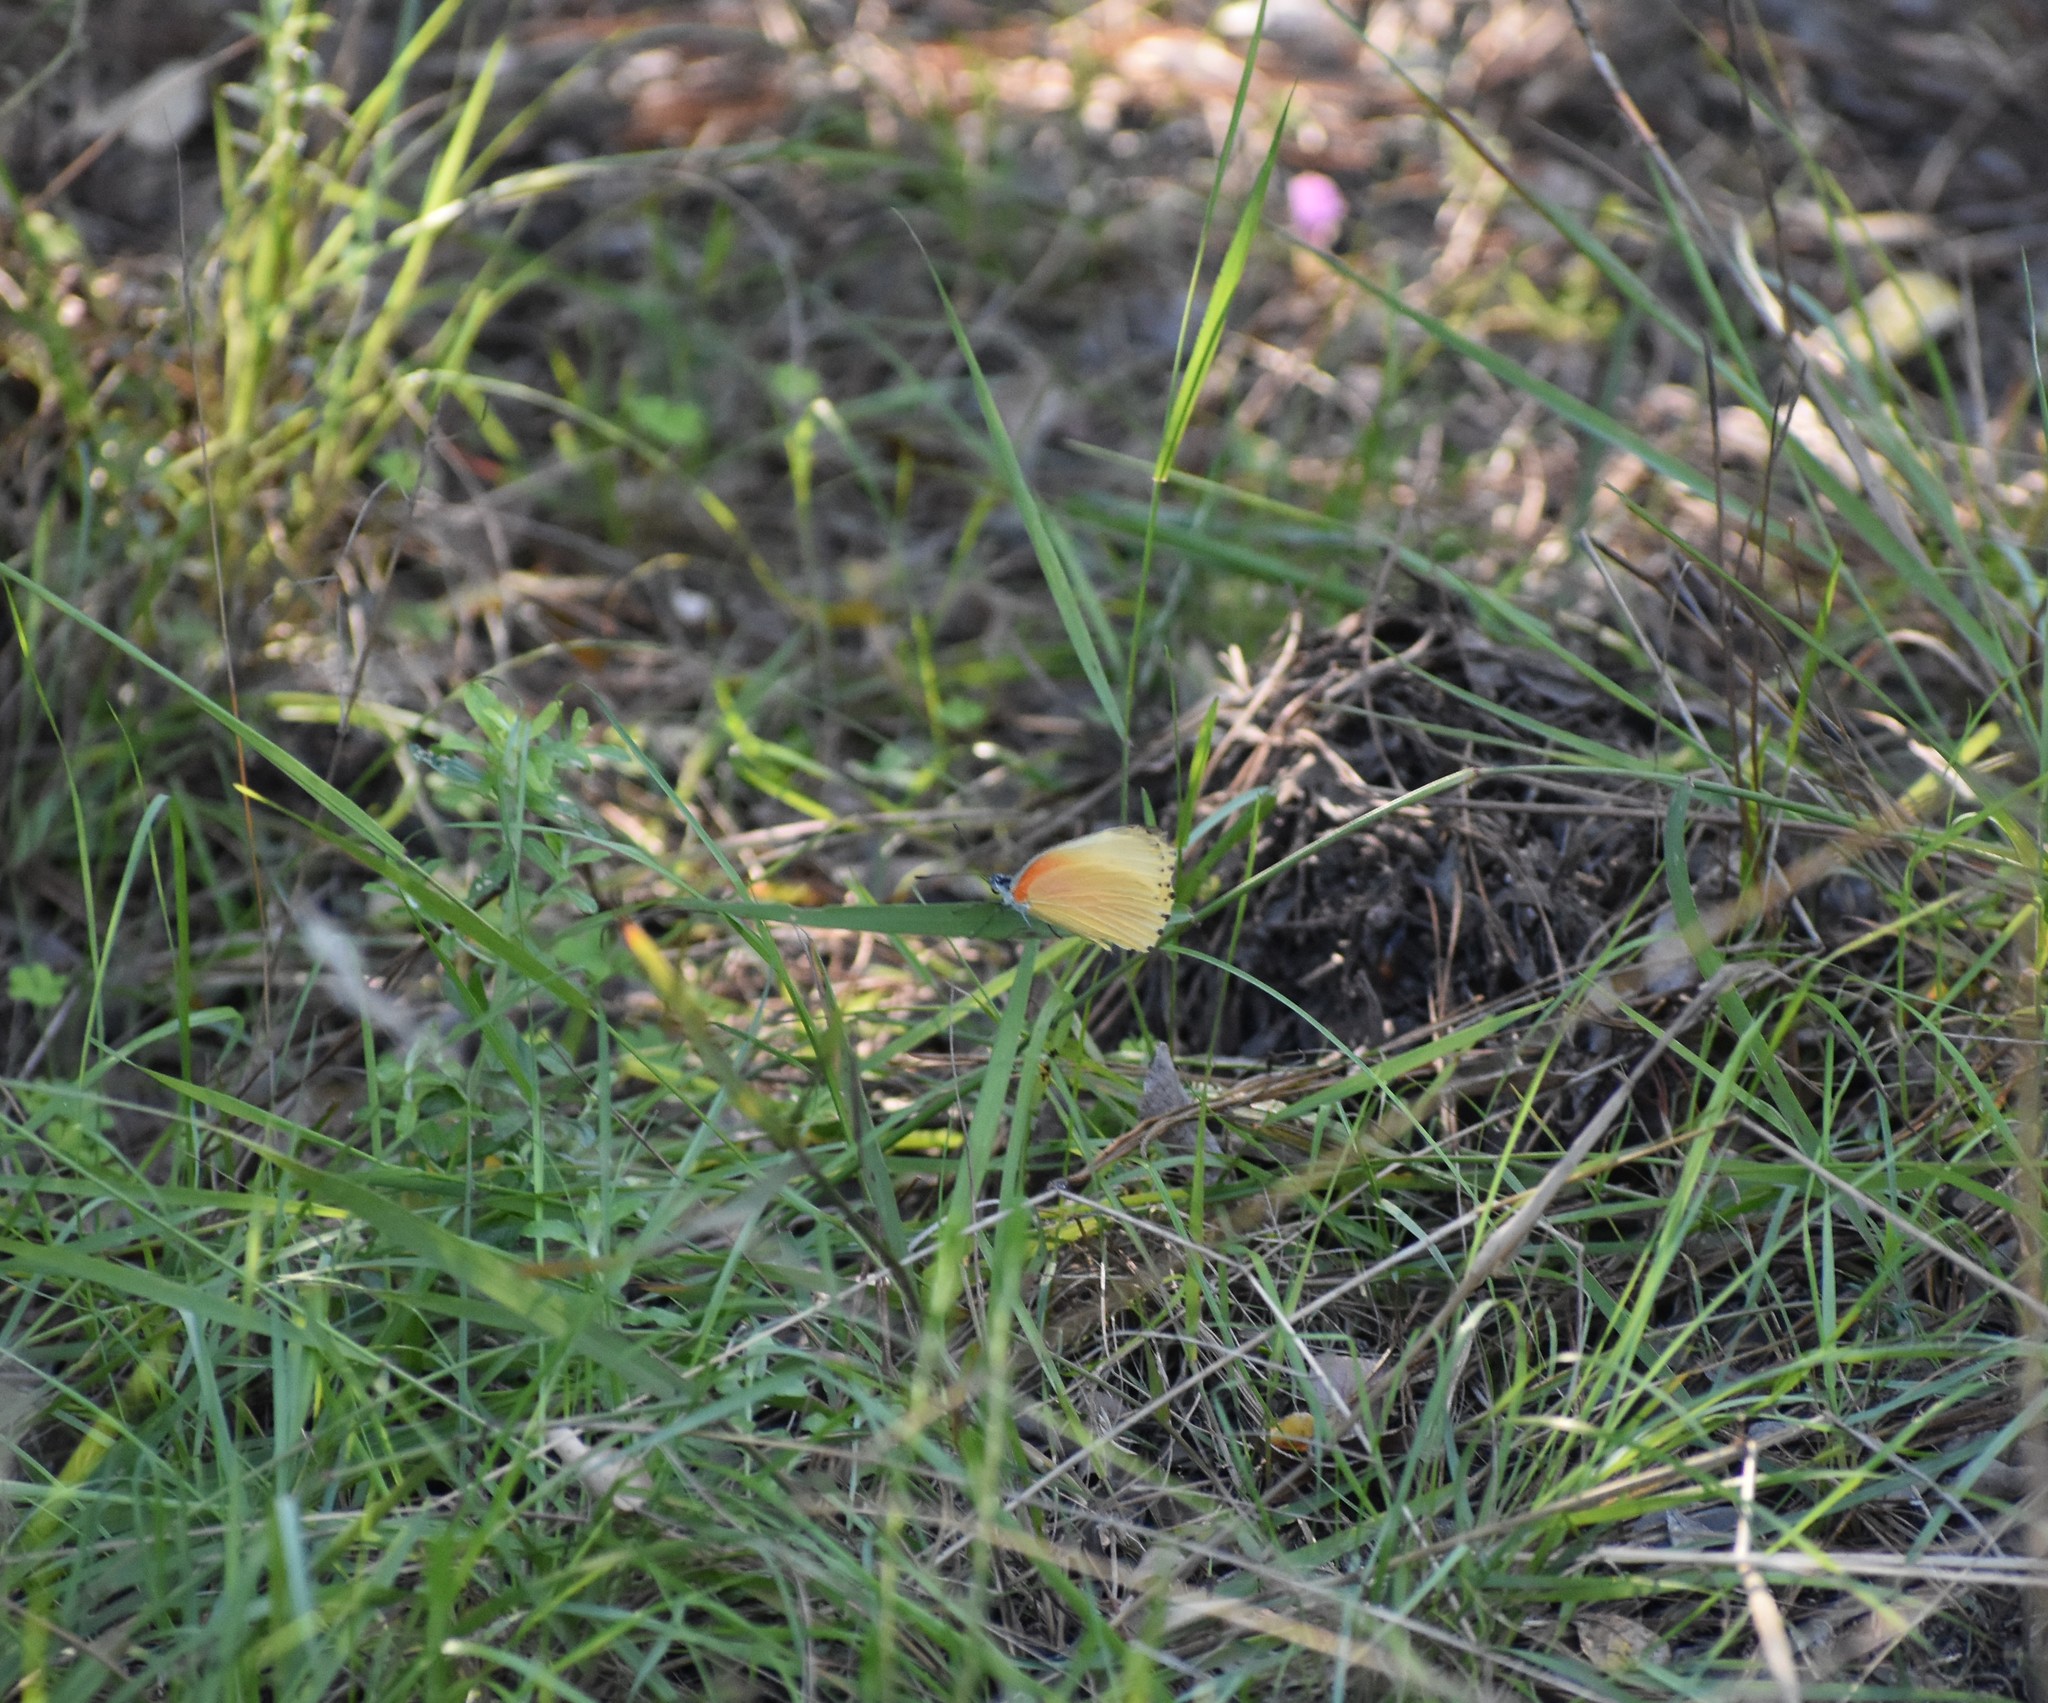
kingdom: Animalia
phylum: Arthropoda
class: Insecta
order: Lepidoptera
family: Pieridae
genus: Mylothris
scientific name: Mylothris agathina
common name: Eastern dotted border
